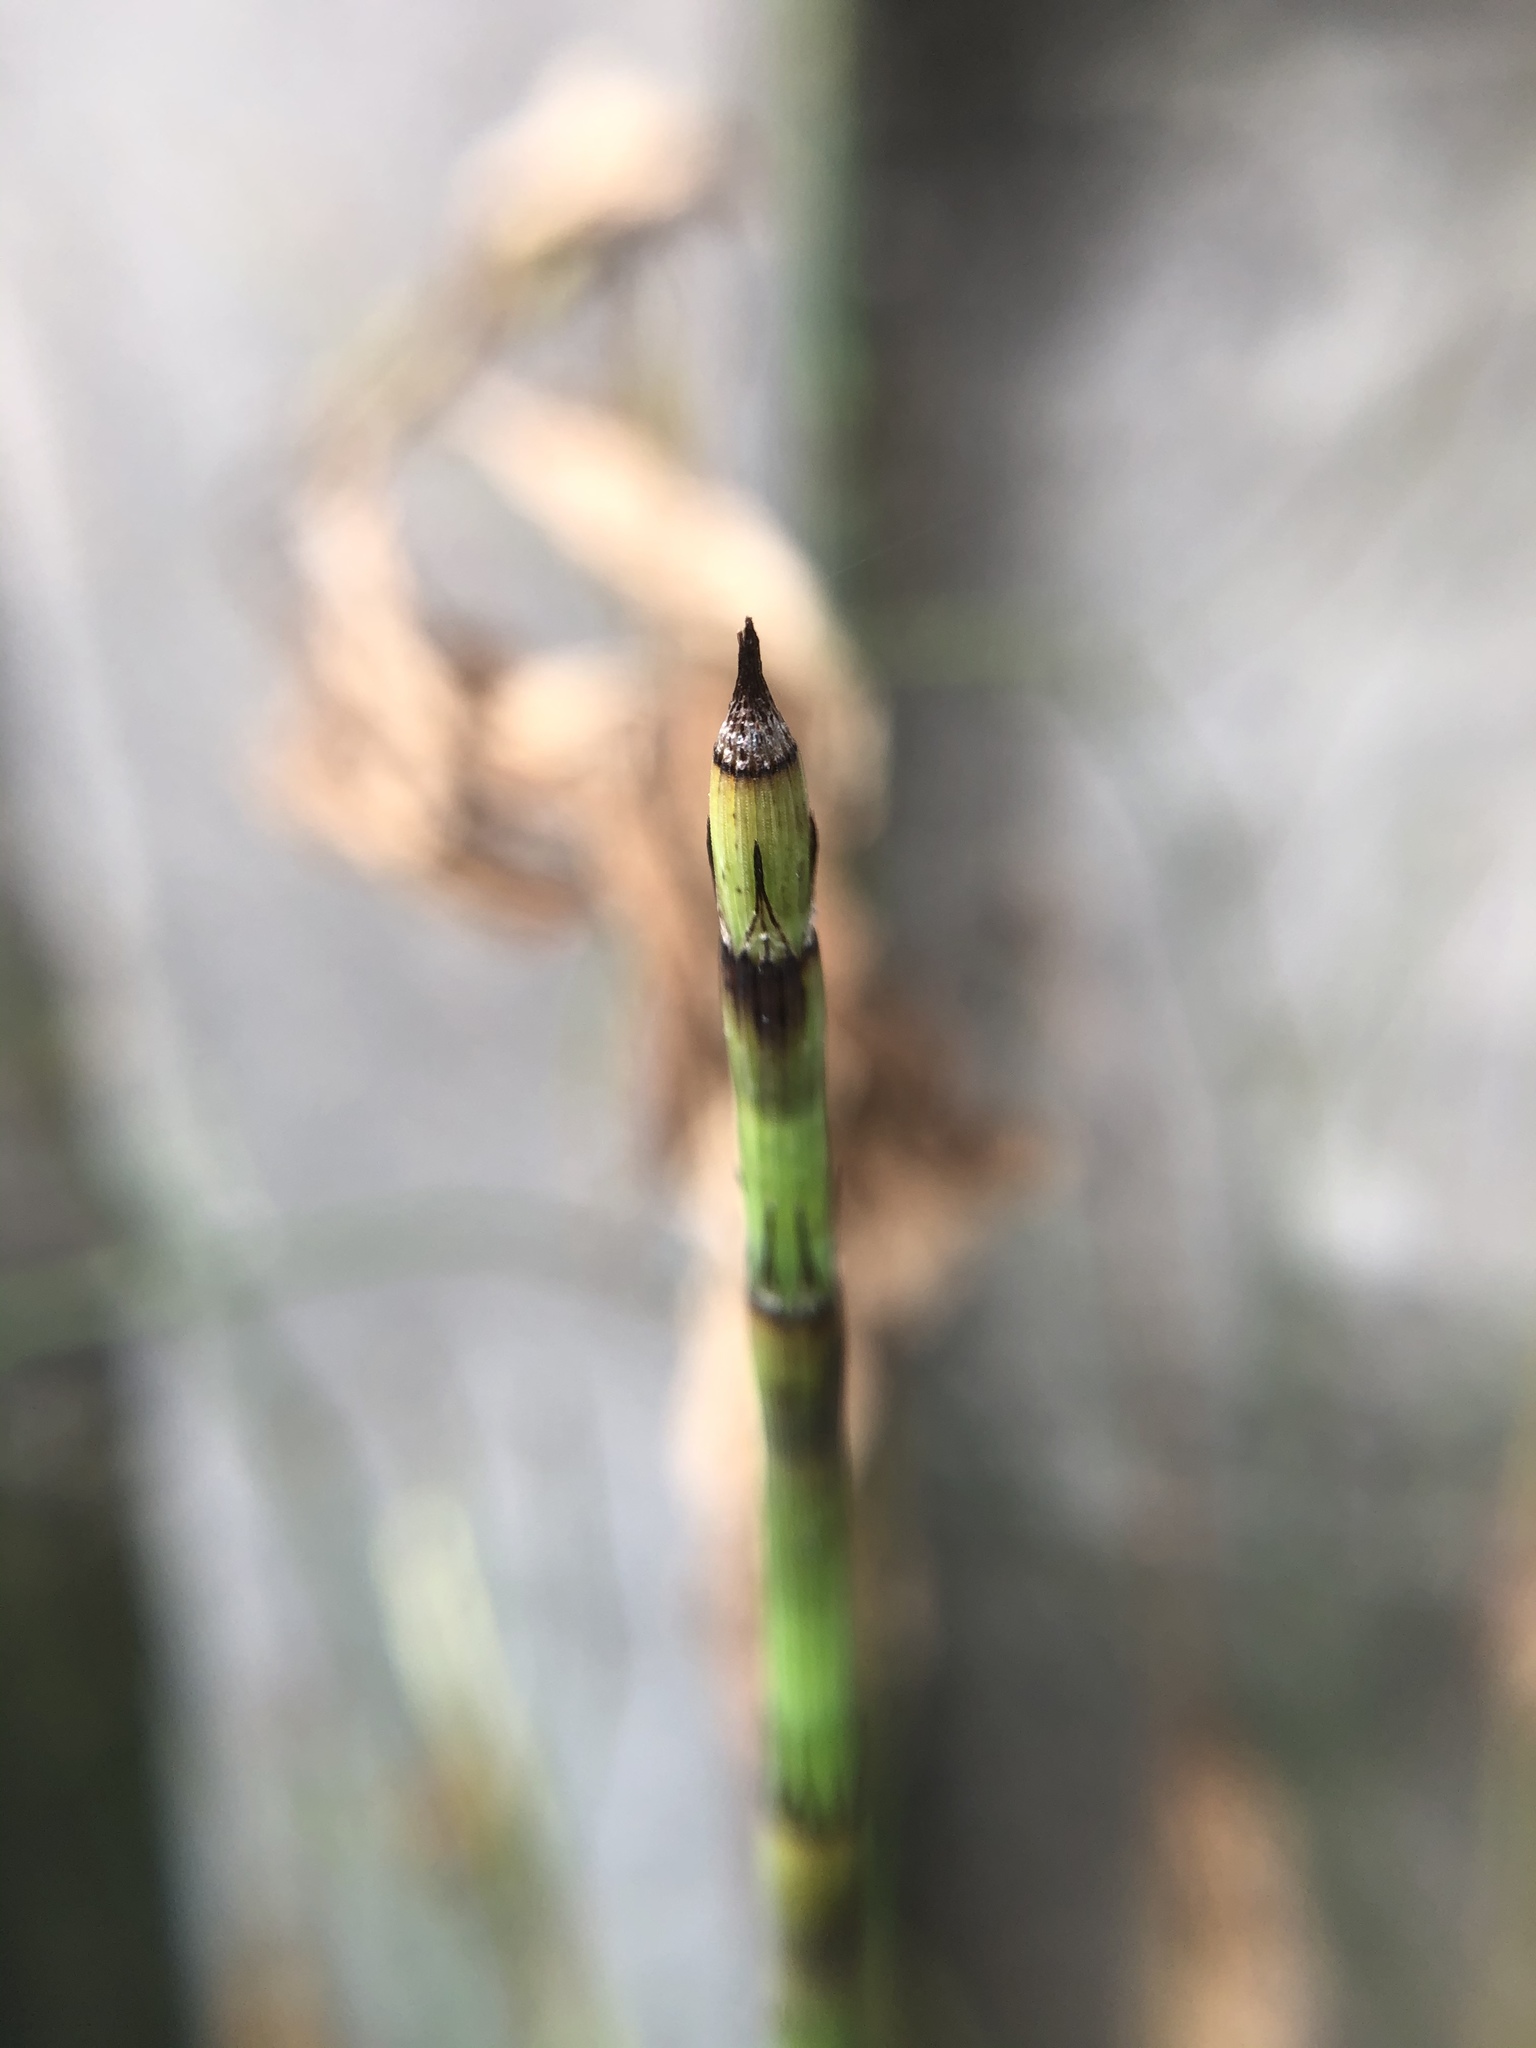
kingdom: Plantae
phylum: Tracheophyta
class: Polypodiopsida
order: Equisetales
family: Equisetaceae
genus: Equisetum
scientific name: Equisetum ramosissimum
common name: Branched horsetail
